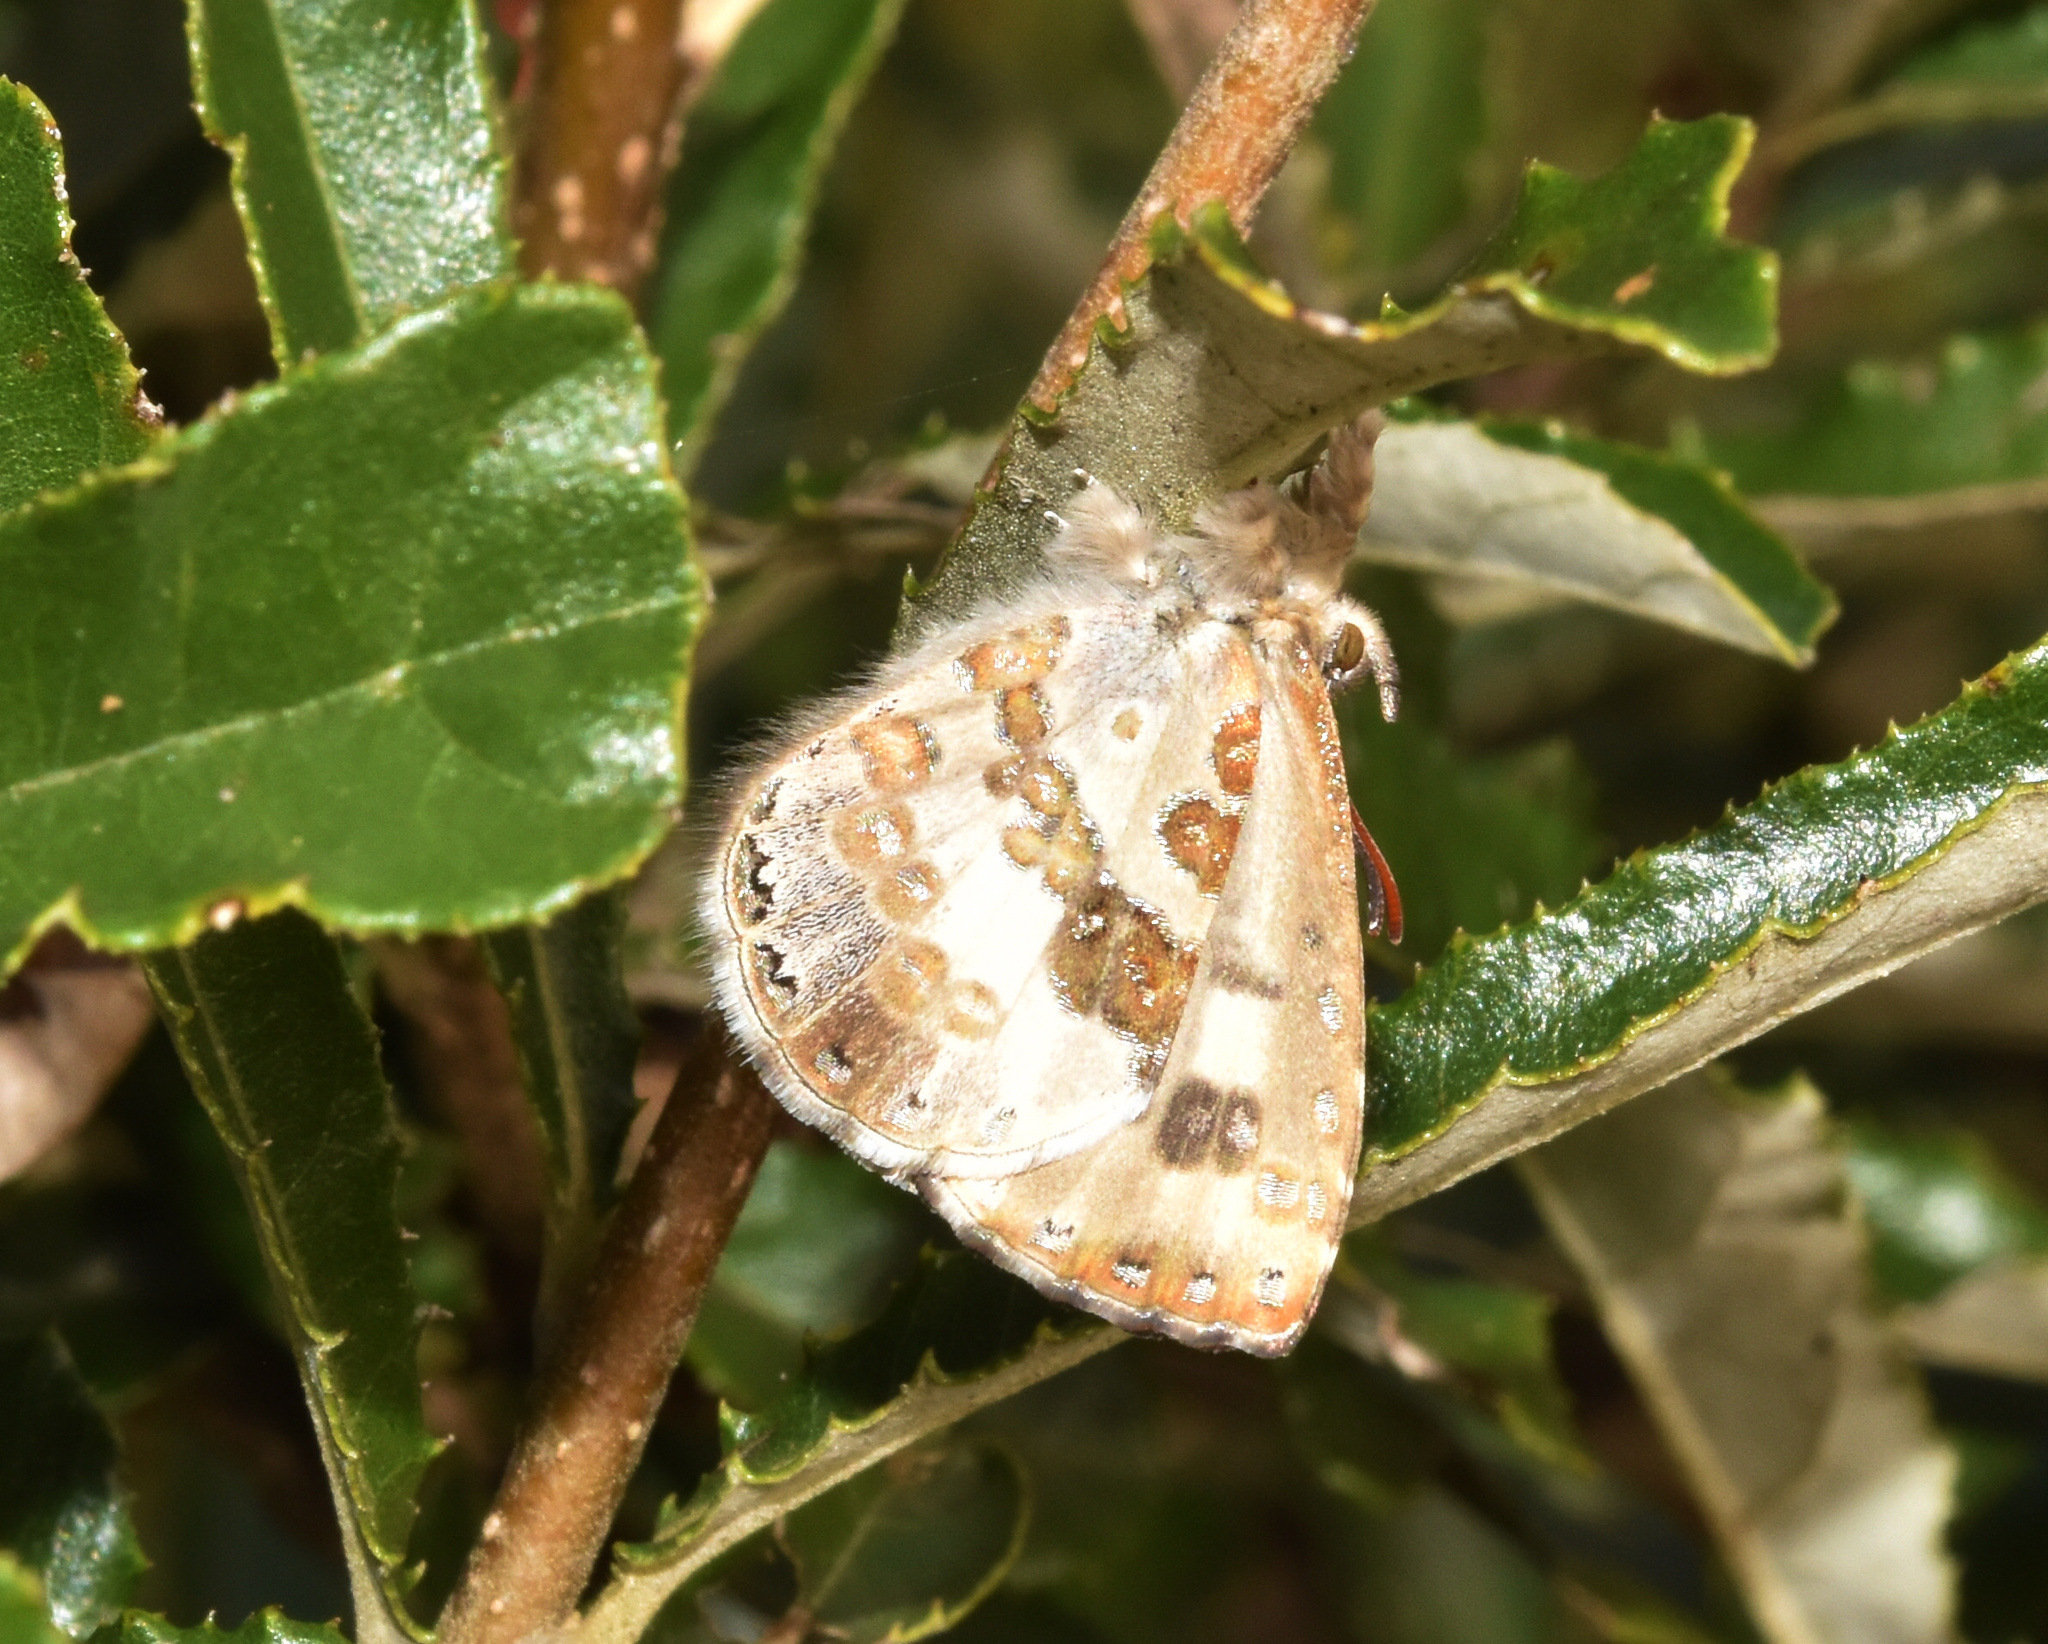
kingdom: Animalia
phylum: Arthropoda
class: Insecta
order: Lepidoptera
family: Lycaenidae
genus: Lachnocnema
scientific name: Lachnocnema bibulus
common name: Common woolly legs
